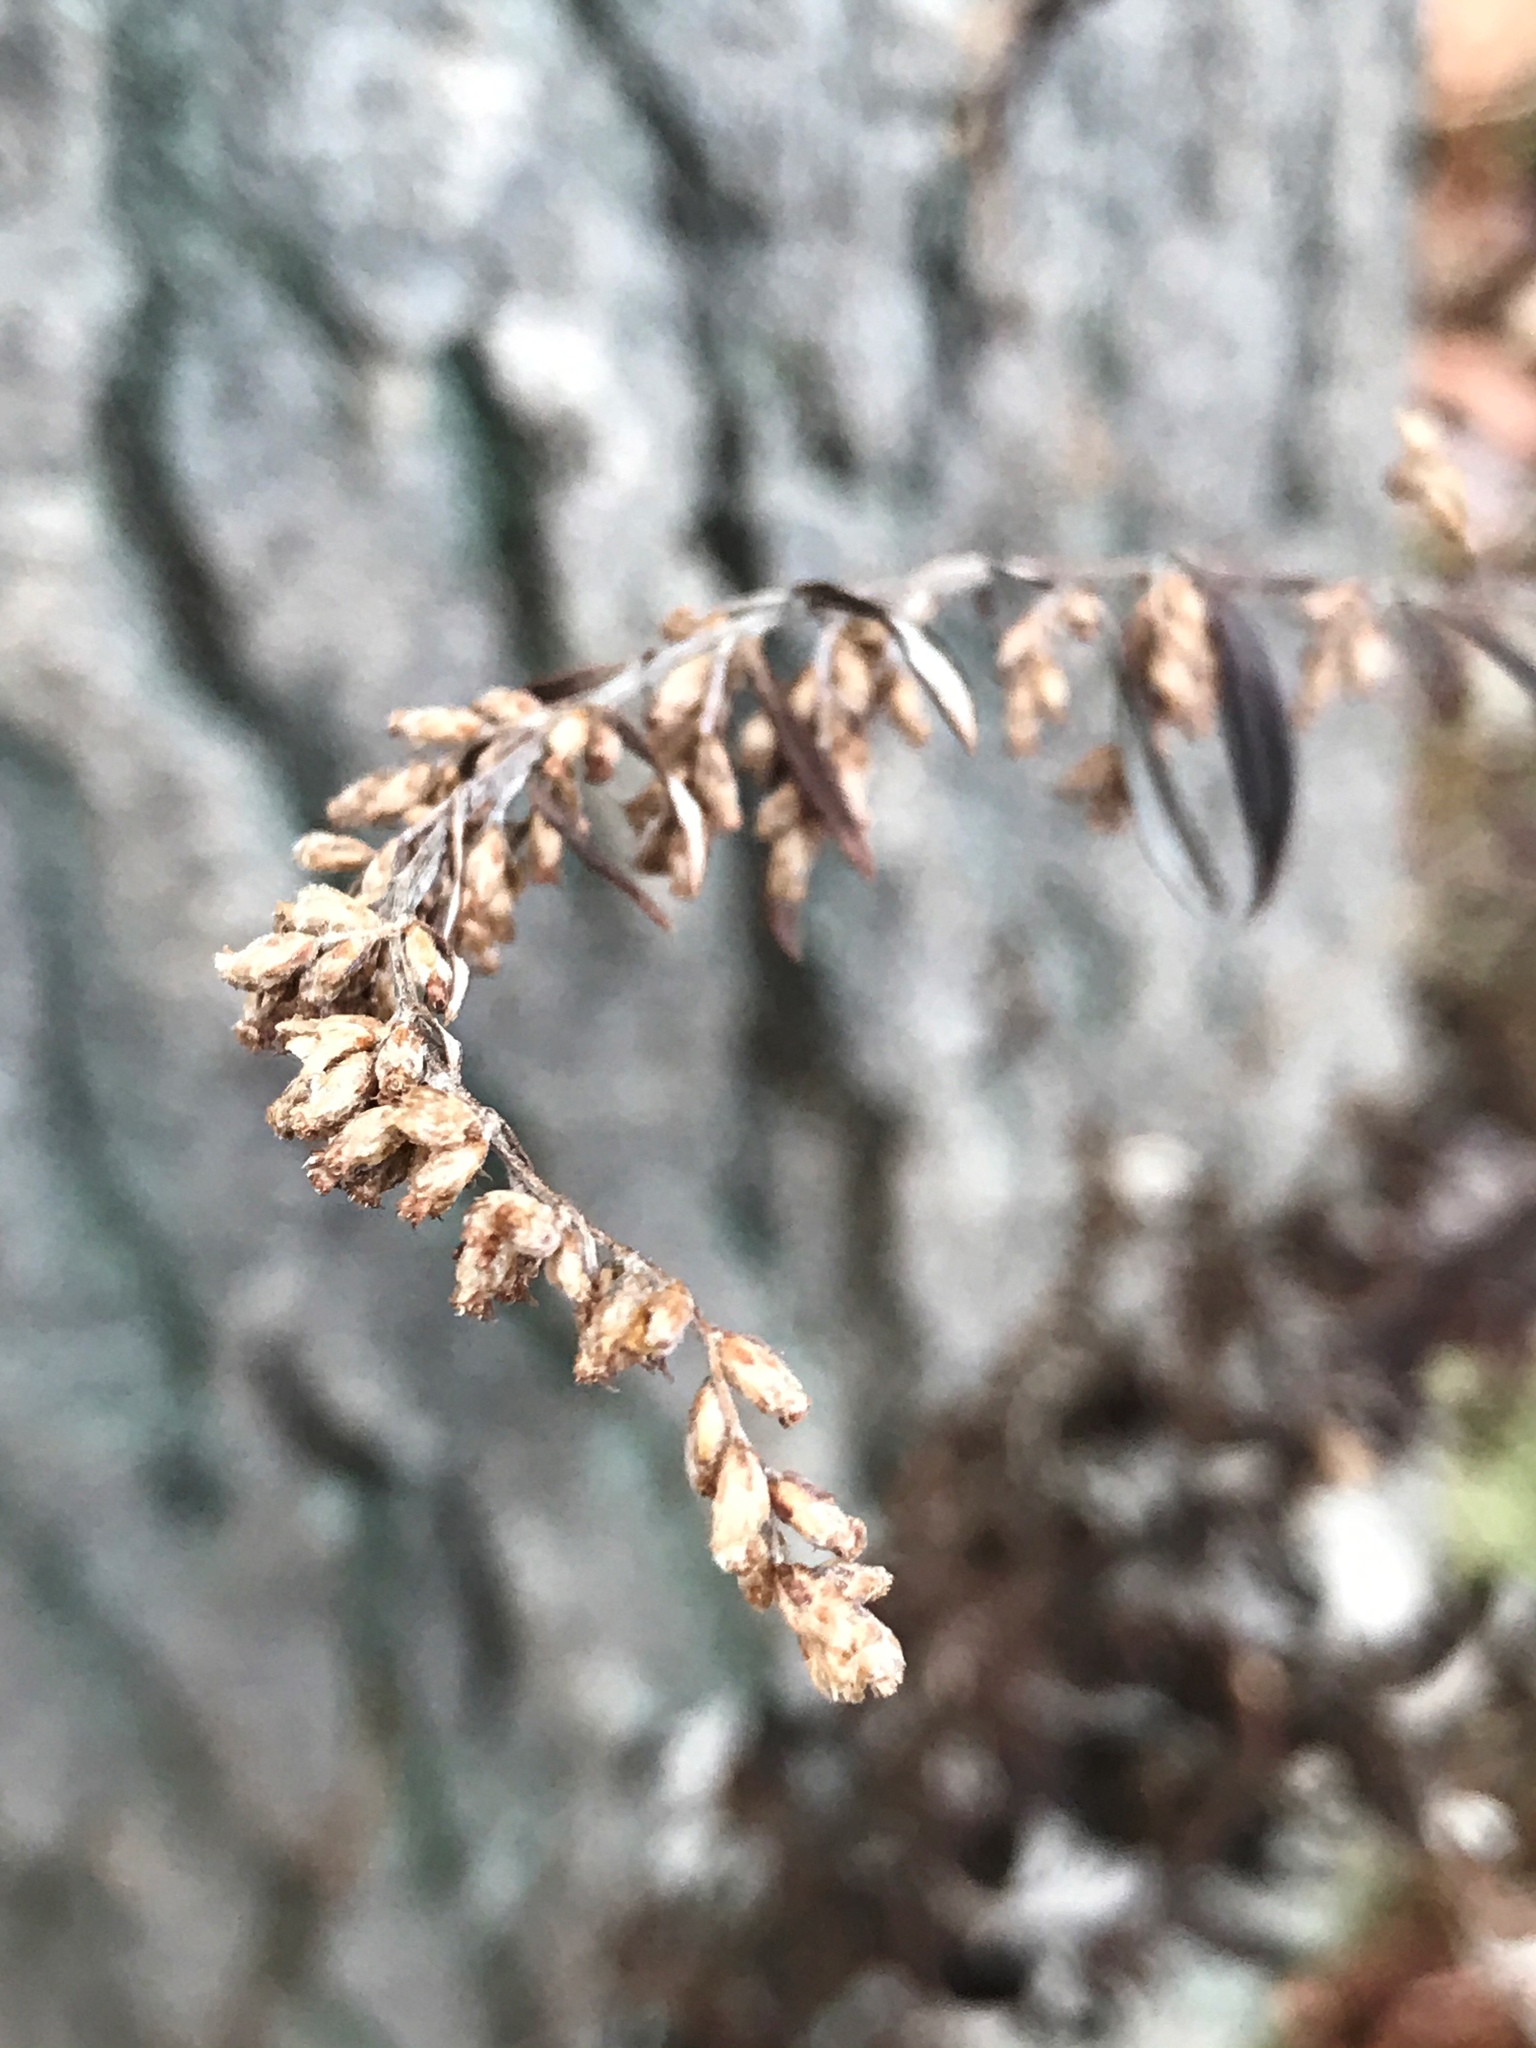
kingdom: Plantae
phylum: Tracheophyta
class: Magnoliopsida
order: Asterales
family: Asteraceae
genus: Artemisia
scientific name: Artemisia vulgaris
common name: Mugwort
